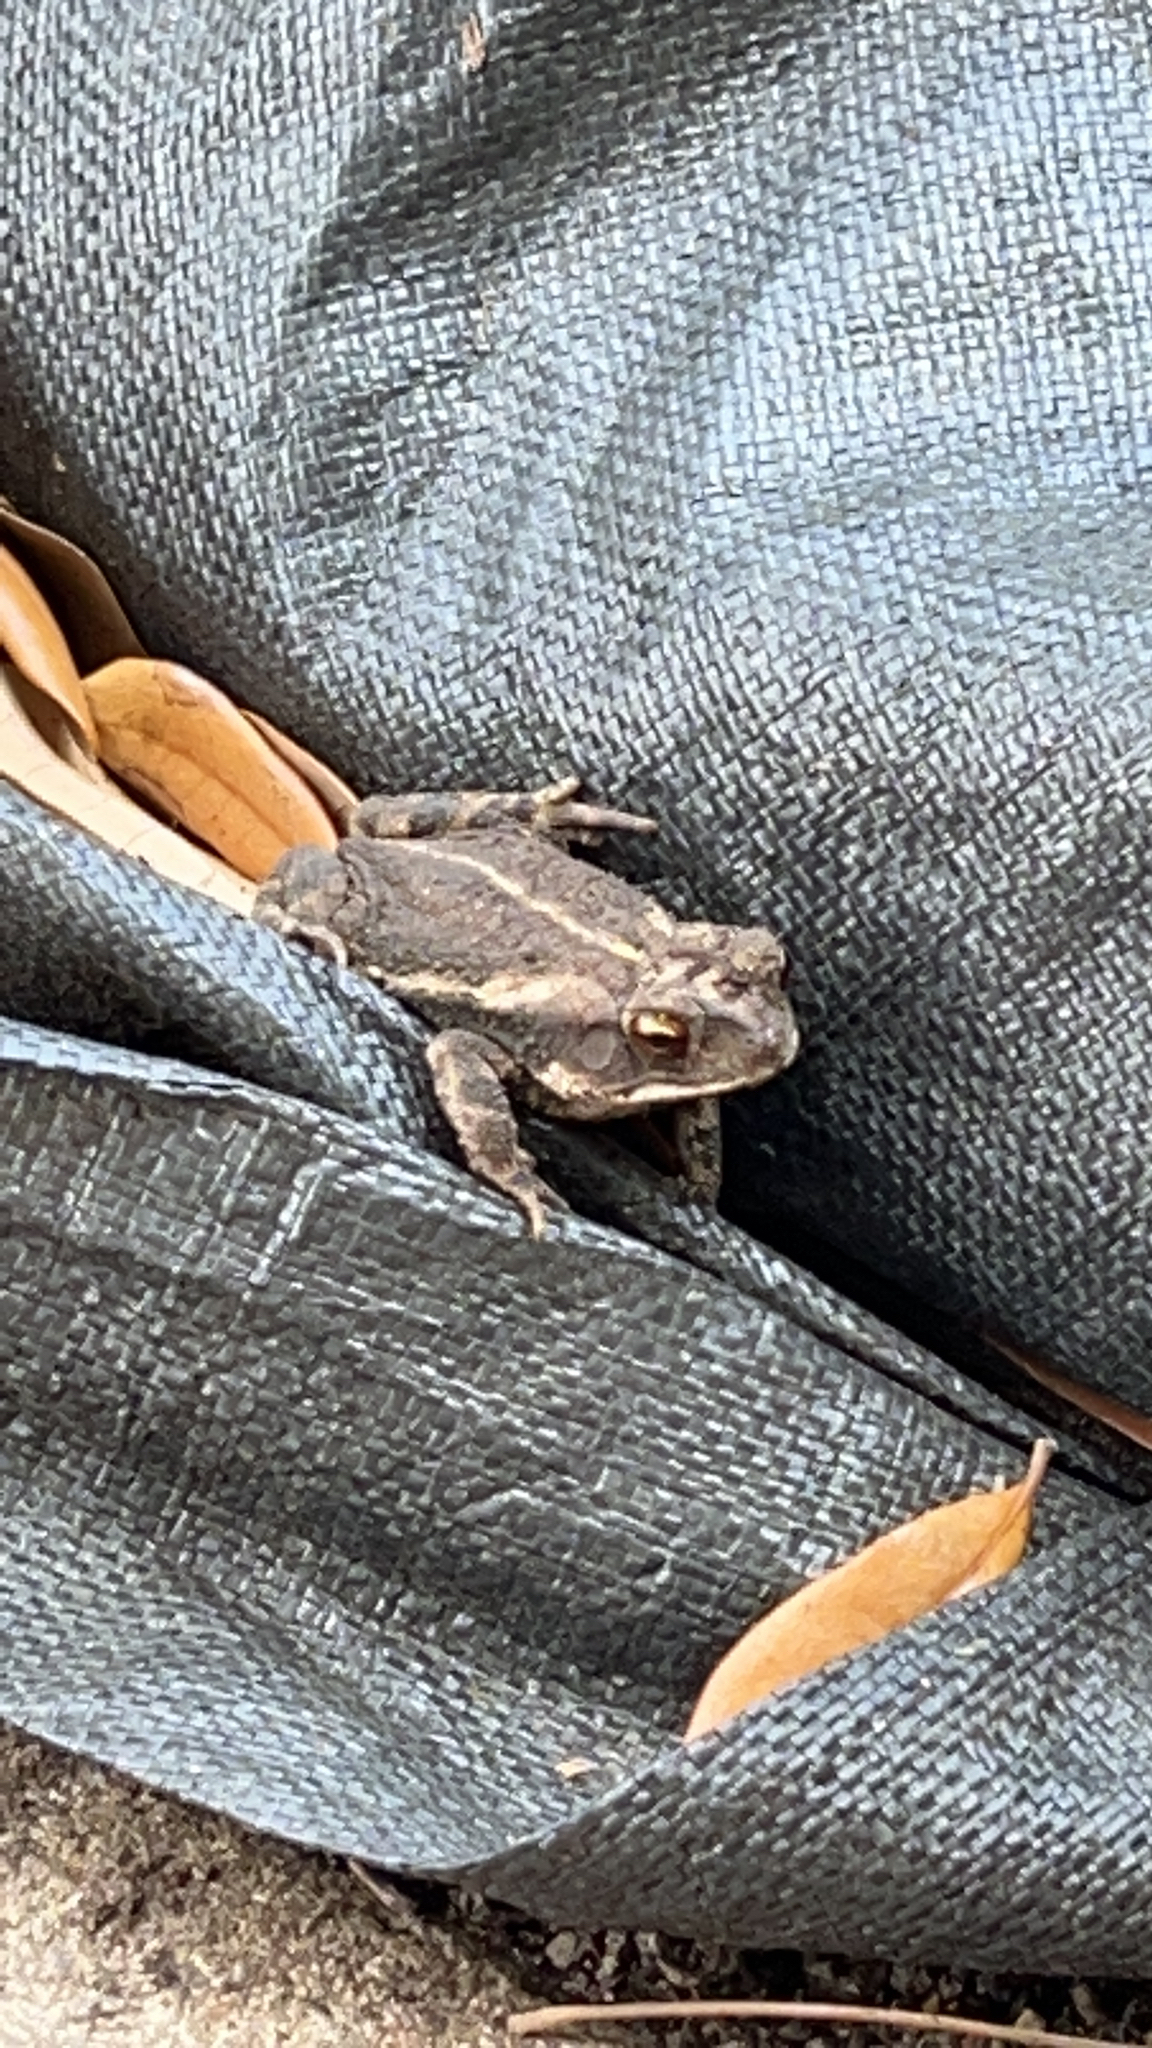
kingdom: Animalia
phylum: Chordata
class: Amphibia
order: Anura
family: Bufonidae
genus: Incilius
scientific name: Incilius nebulifer
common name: Gulf coast toad
